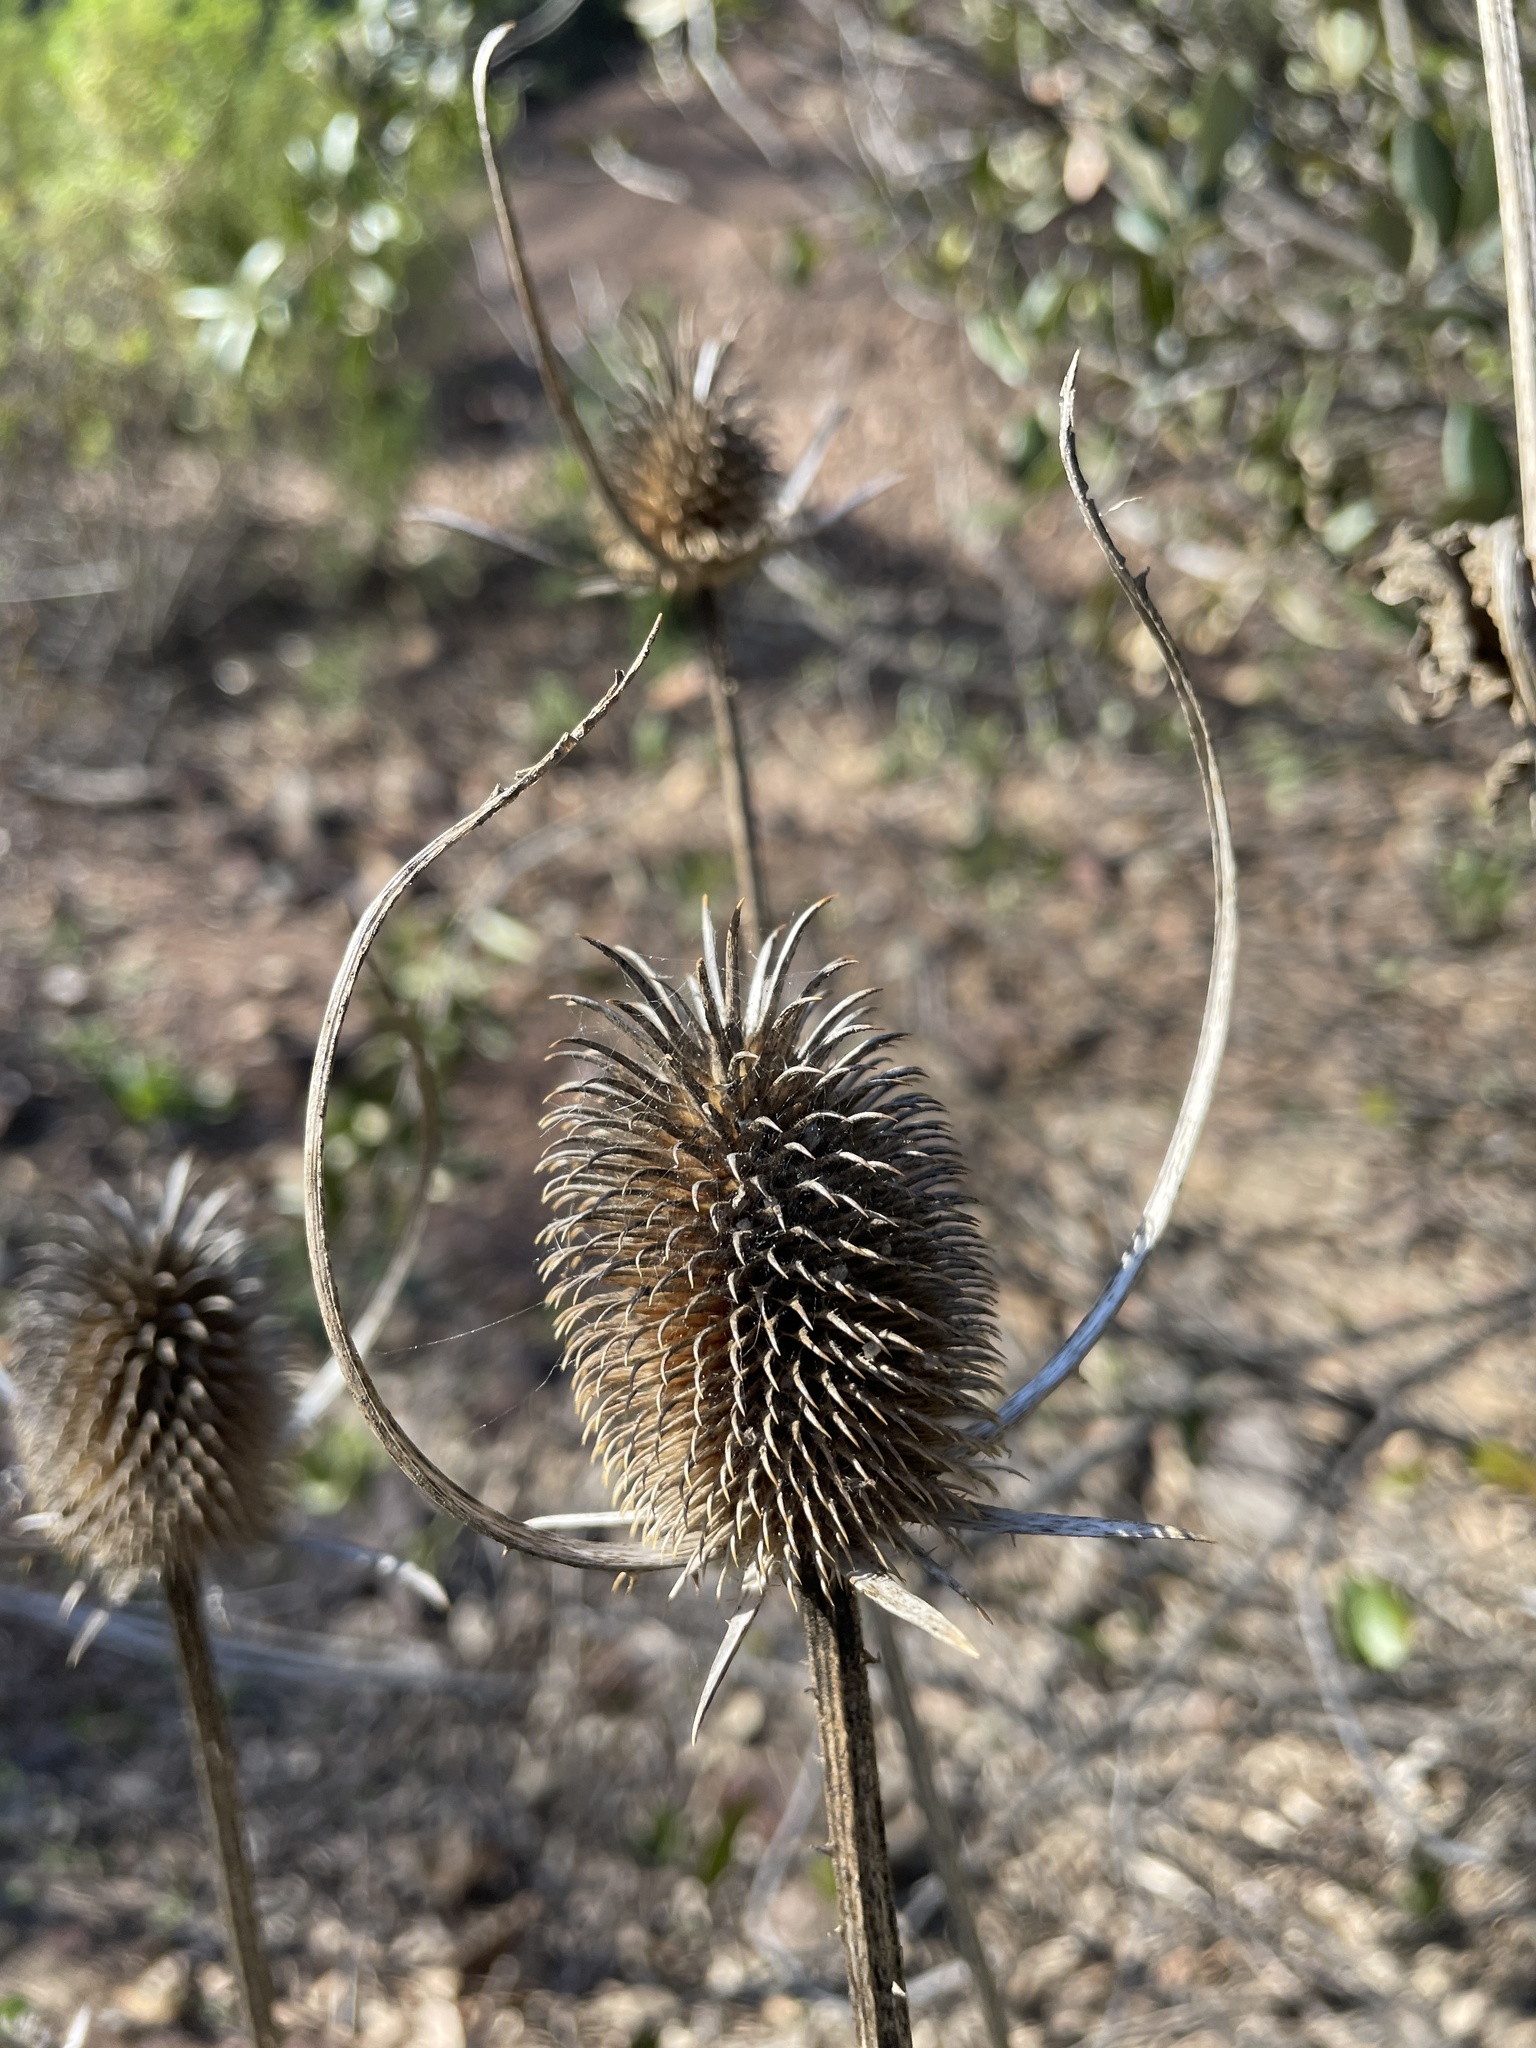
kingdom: Plantae
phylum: Tracheophyta
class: Magnoliopsida
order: Dipsacales
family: Caprifoliaceae
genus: Dipsacus
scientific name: Dipsacus sativus
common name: Fuller's teasel
